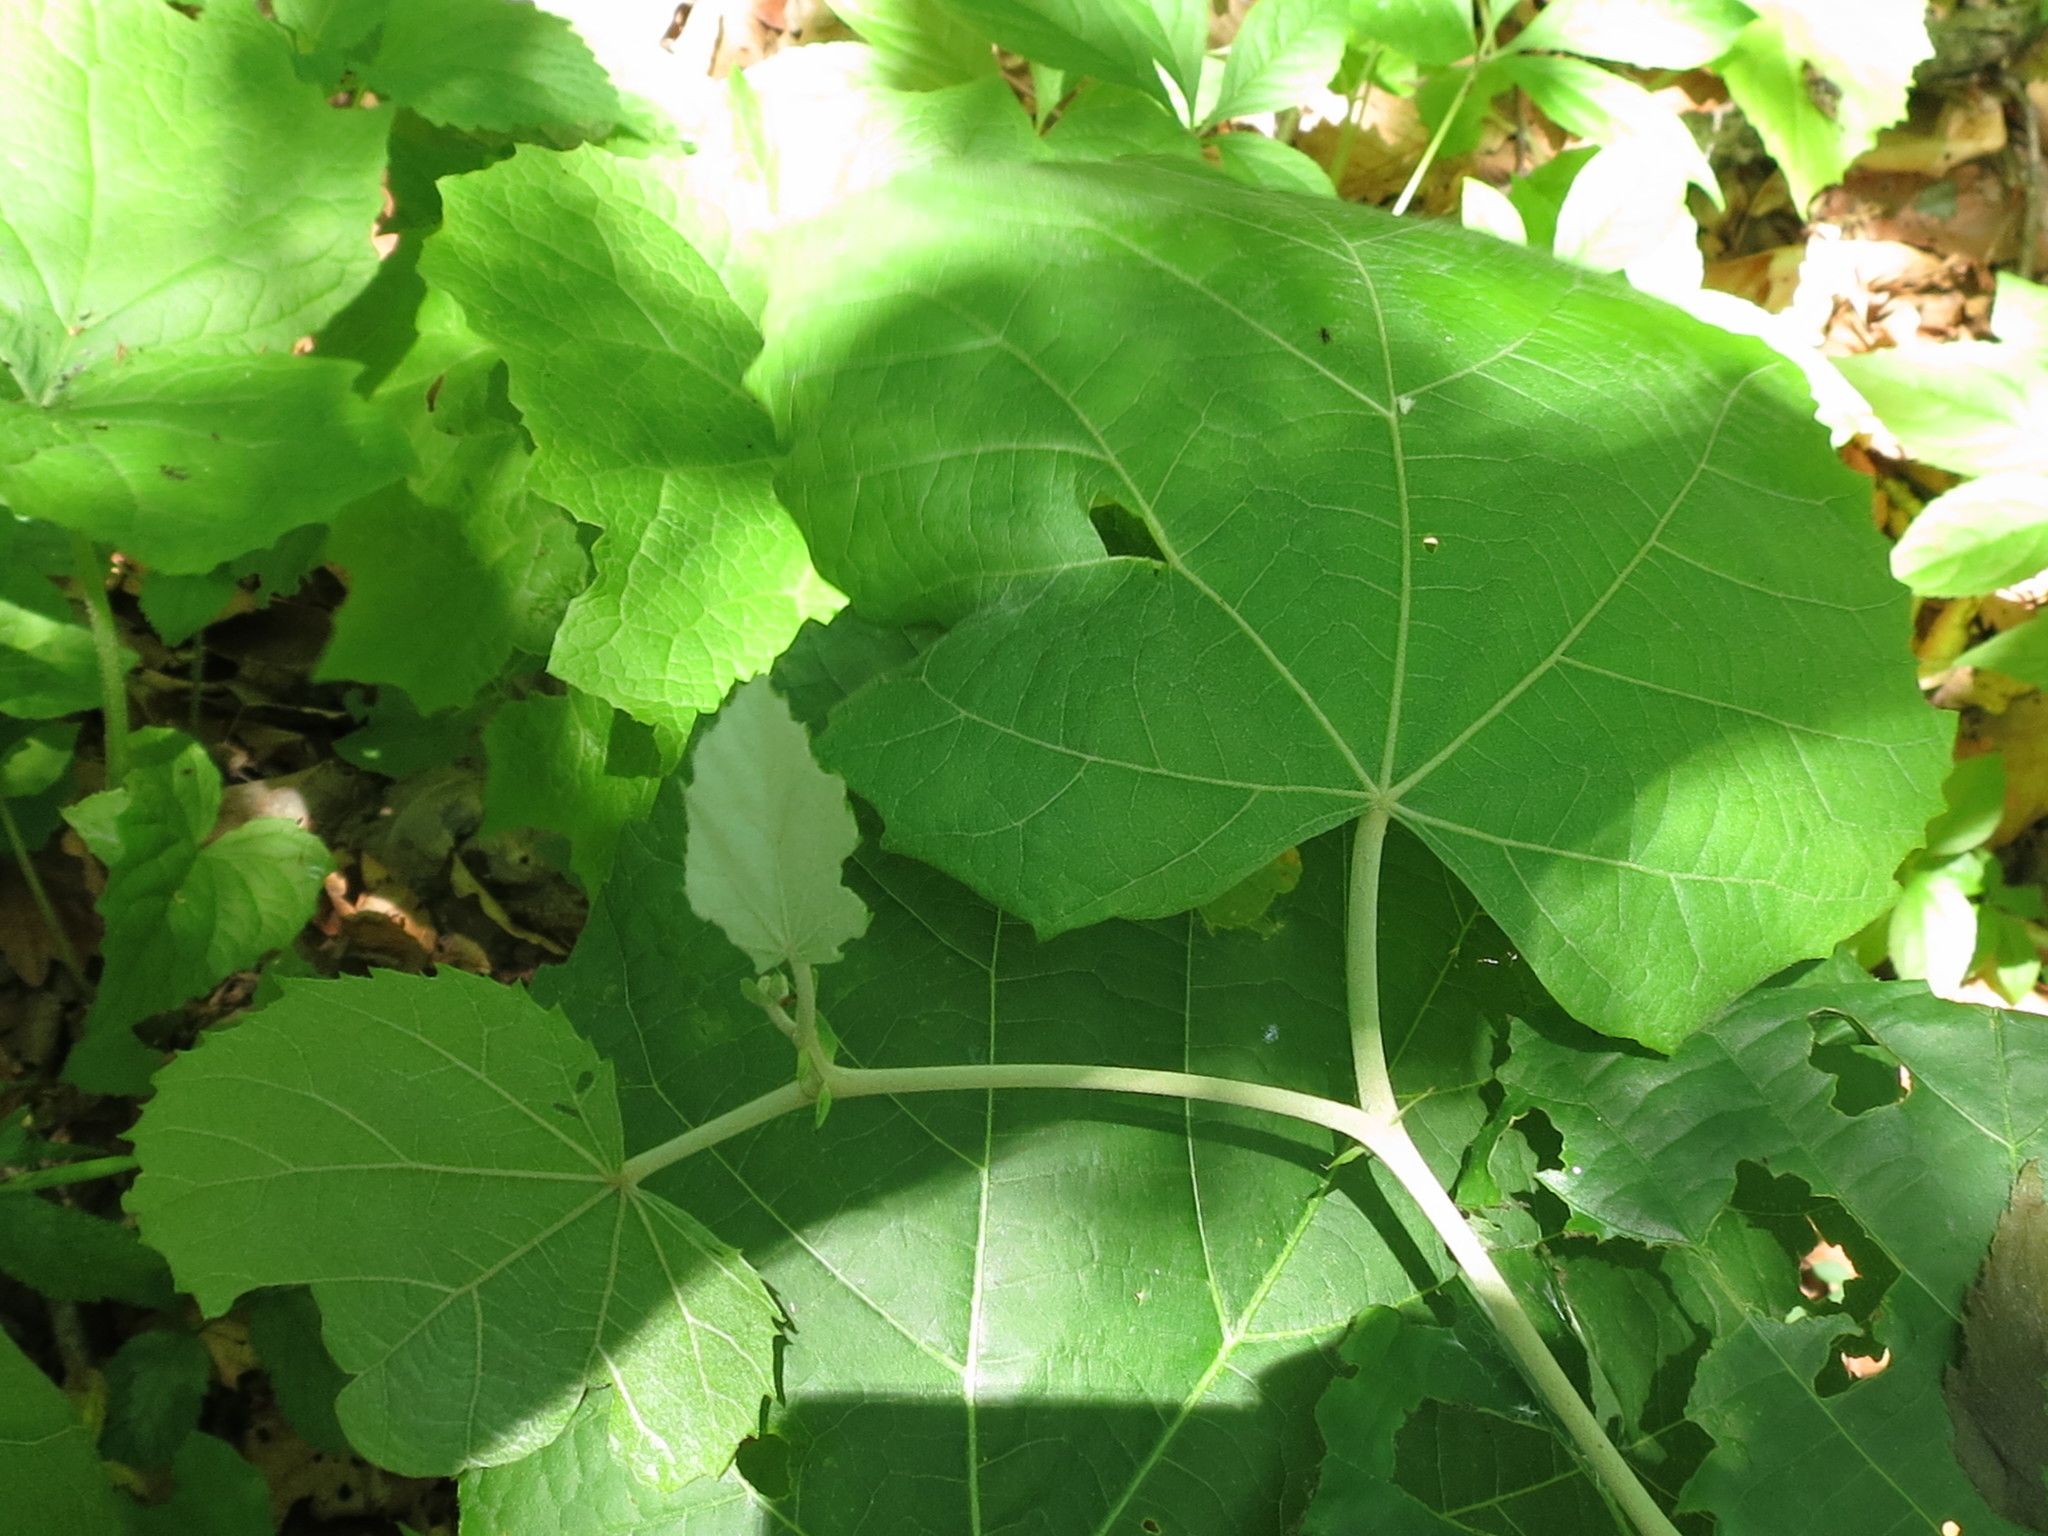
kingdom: Plantae
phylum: Tracheophyta
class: Magnoliopsida
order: Malvales
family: Malvaceae
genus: Tilia
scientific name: Tilia mandshurica
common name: Manchurian linden
